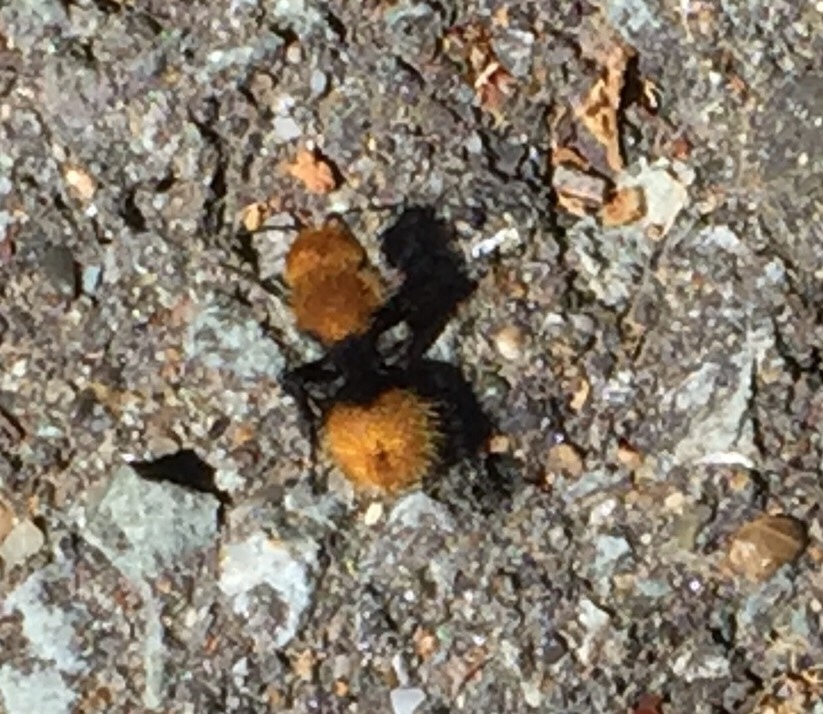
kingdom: Animalia
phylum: Arthropoda
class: Insecta
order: Hymenoptera
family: Mutillidae
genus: Dasymutilla
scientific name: Dasymutilla
